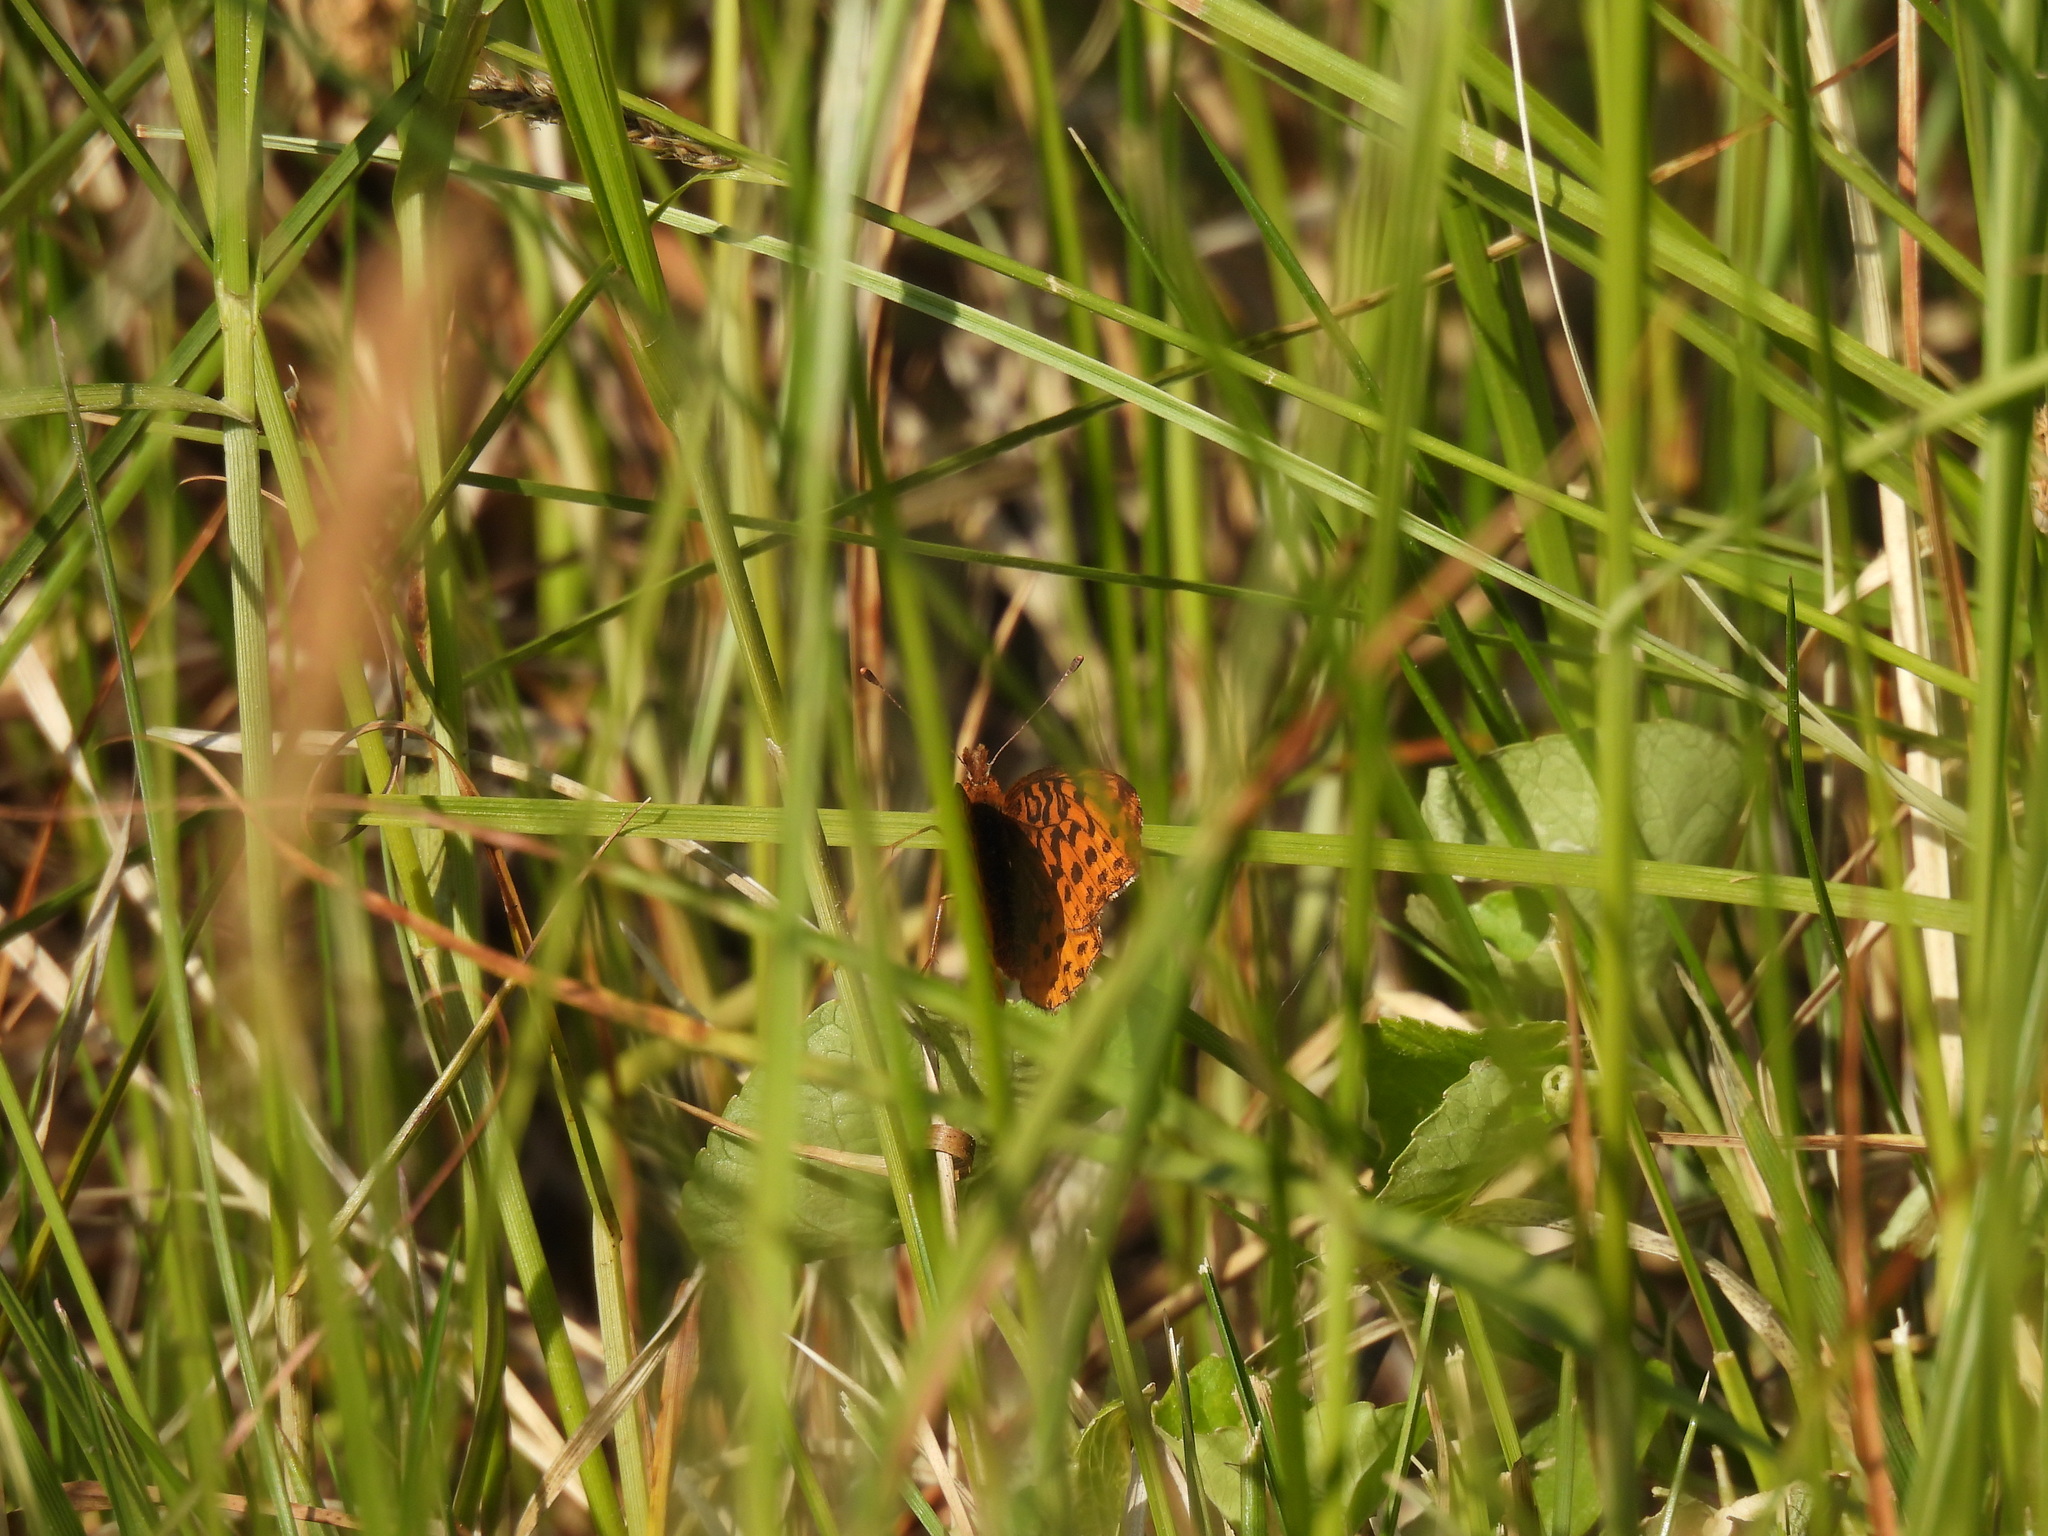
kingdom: Animalia
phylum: Arthropoda
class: Insecta
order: Lepidoptera
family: Nymphalidae
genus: Clossiana
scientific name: Clossiana toddi
